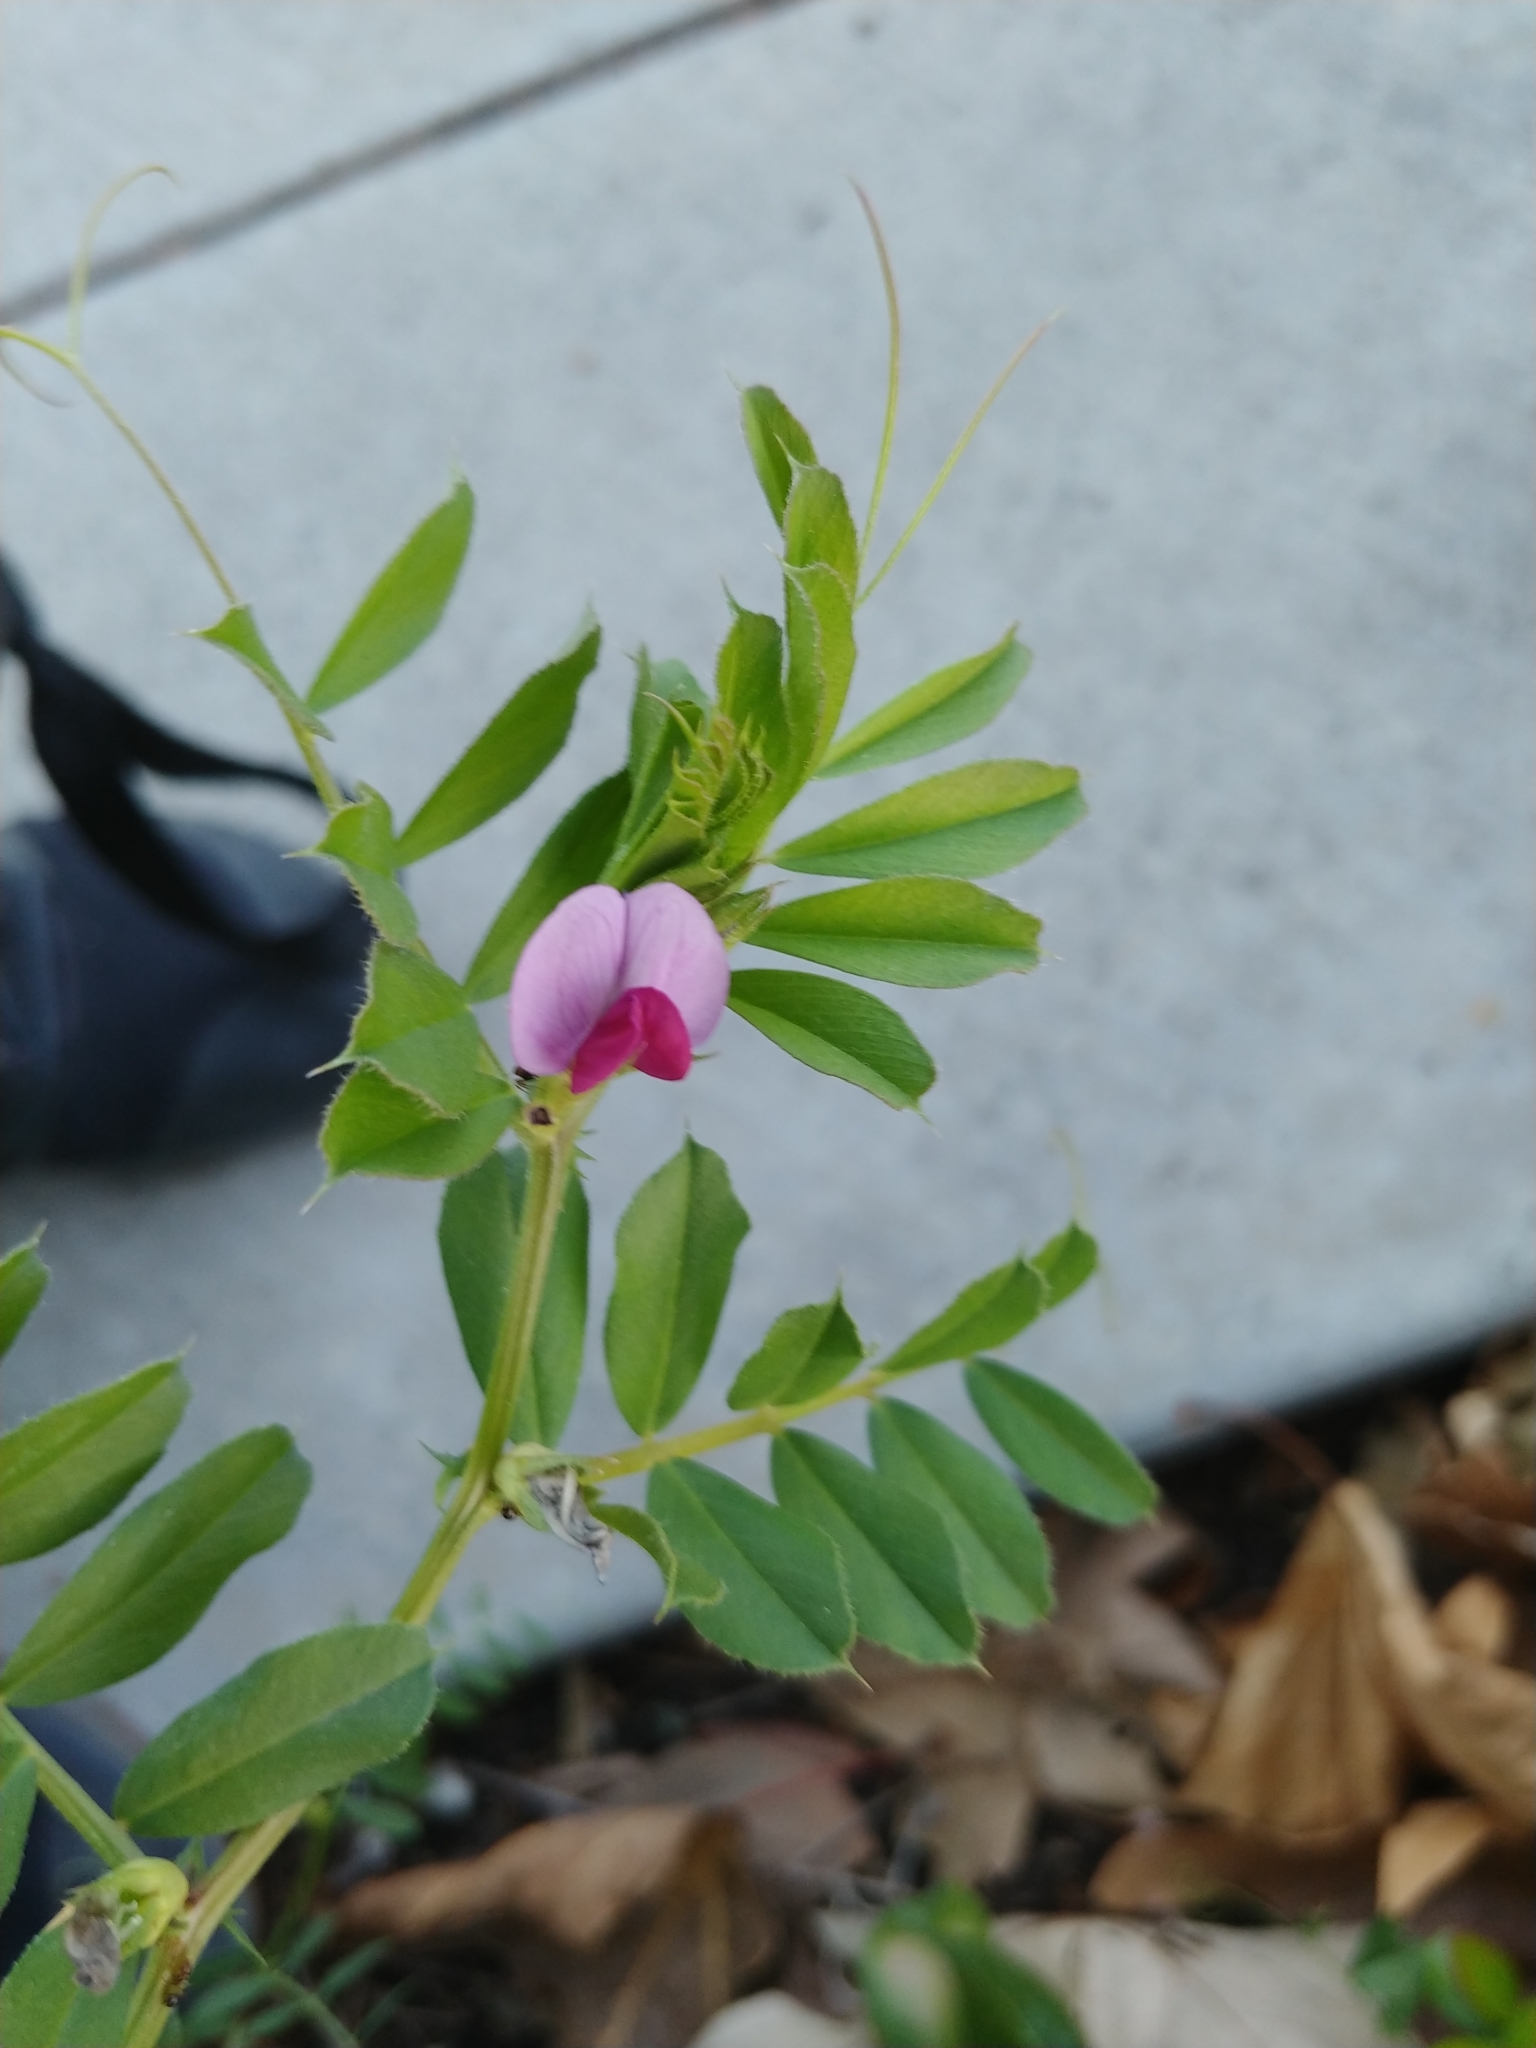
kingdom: Plantae
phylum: Tracheophyta
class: Magnoliopsida
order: Fabales
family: Fabaceae
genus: Vicia
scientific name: Vicia sativa
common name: Garden vetch
